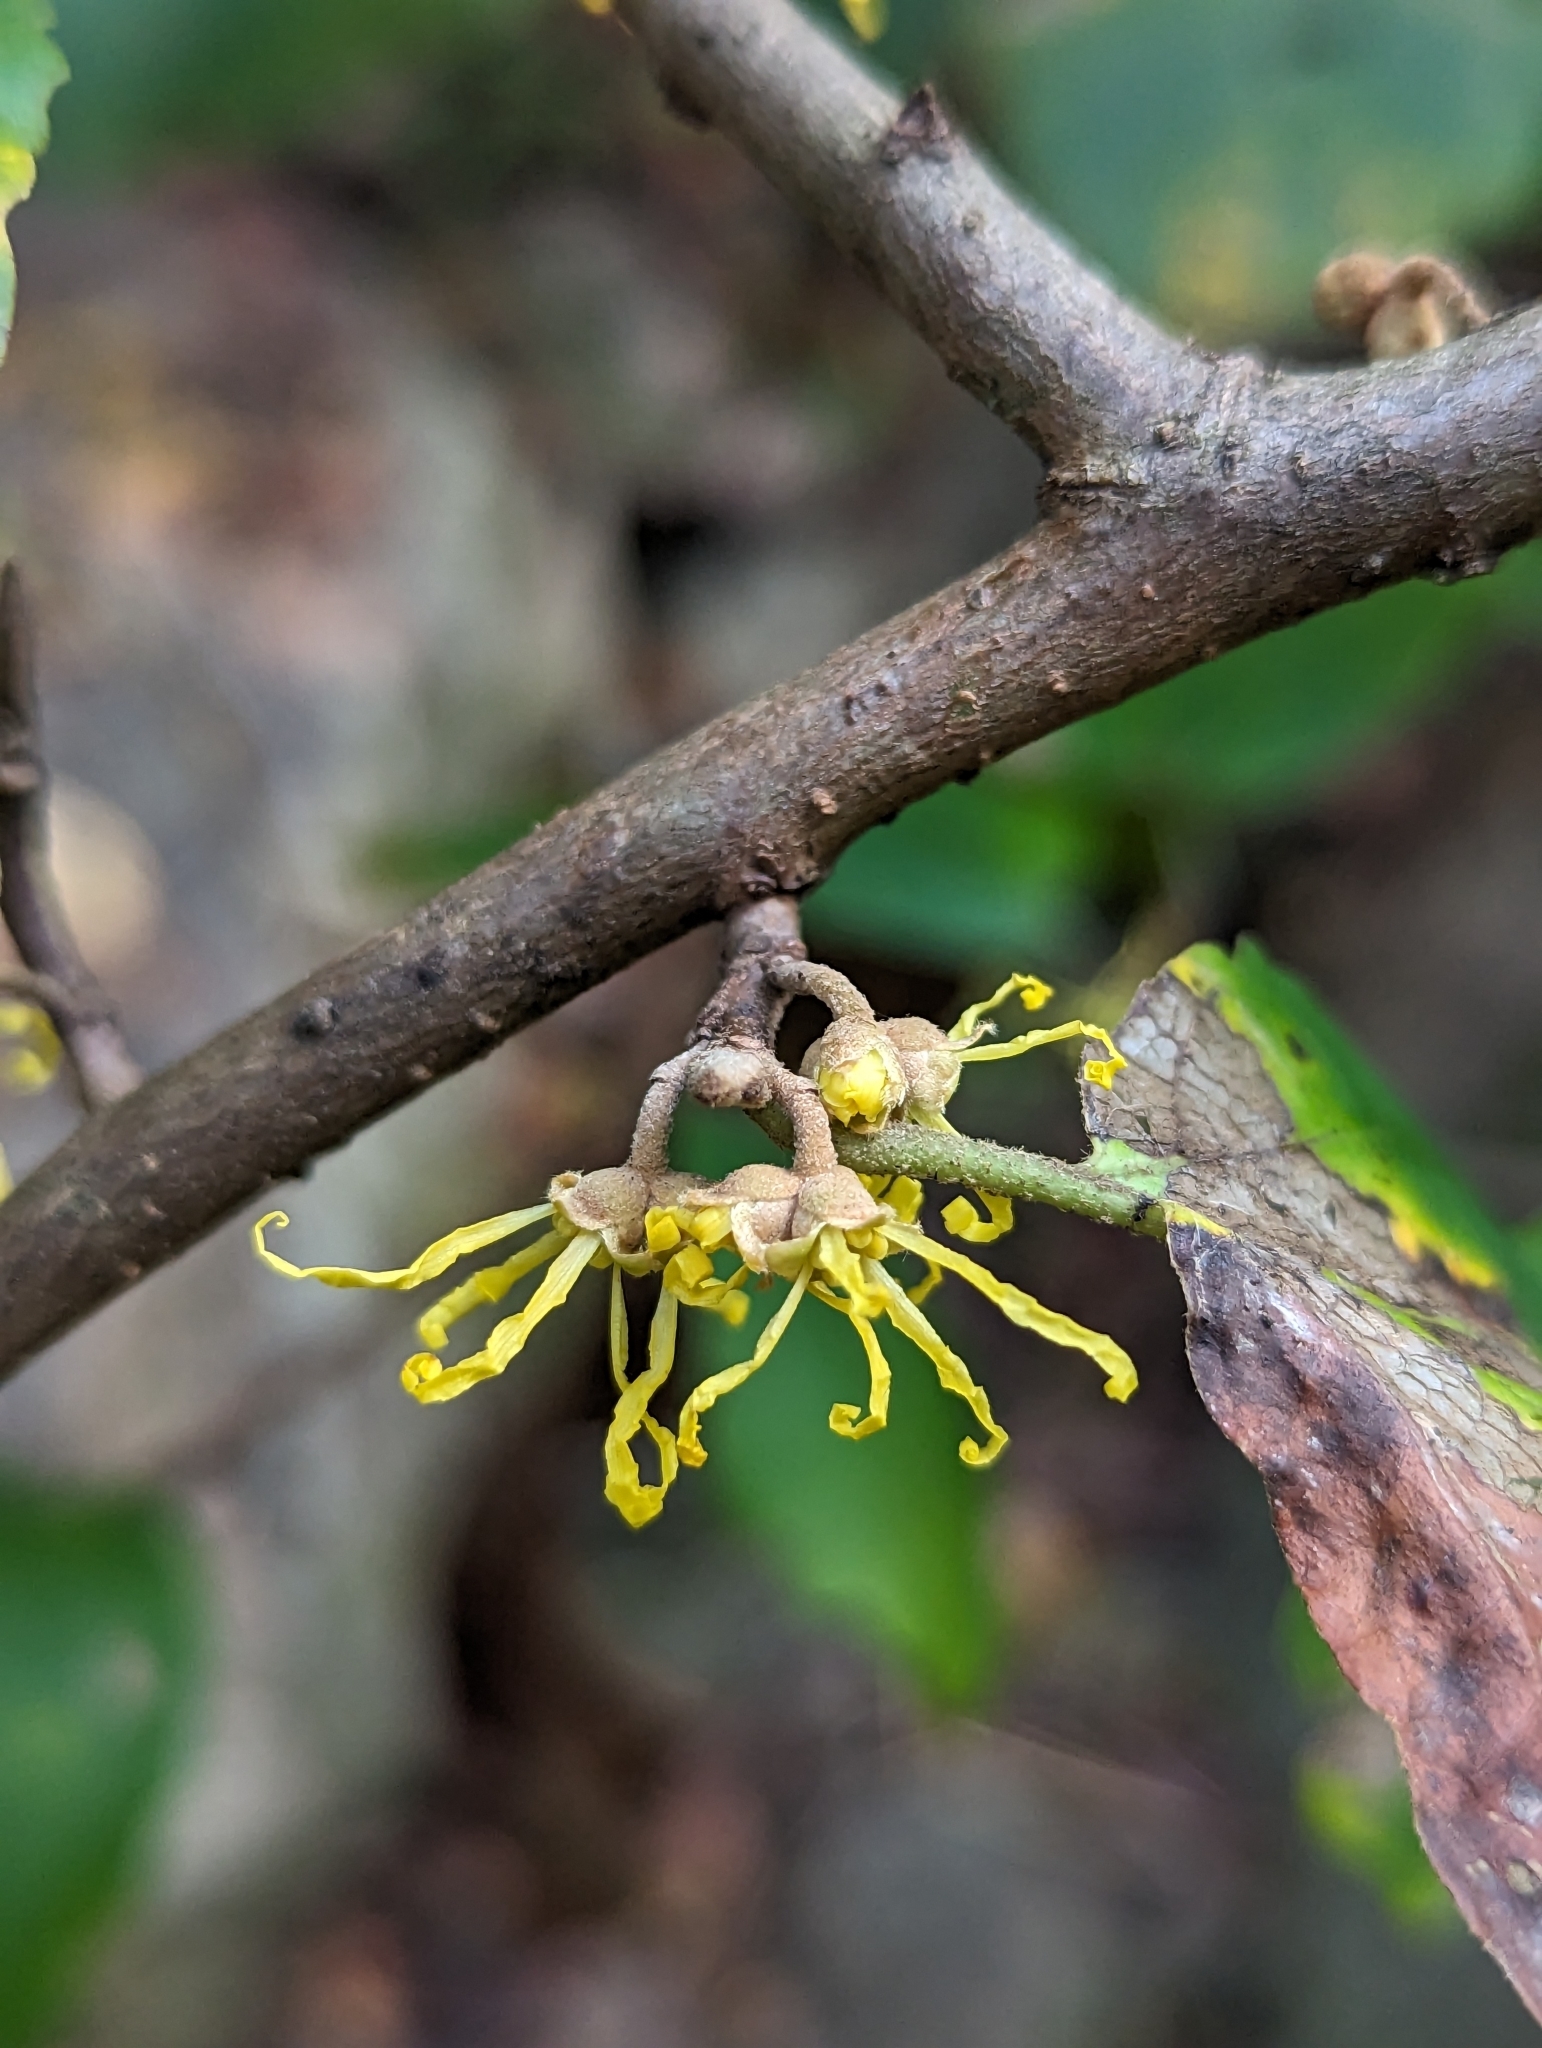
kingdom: Plantae
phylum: Tracheophyta
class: Magnoliopsida
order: Saxifragales
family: Hamamelidaceae
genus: Hamamelis
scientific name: Hamamelis virginiana
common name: Witch-hazel
